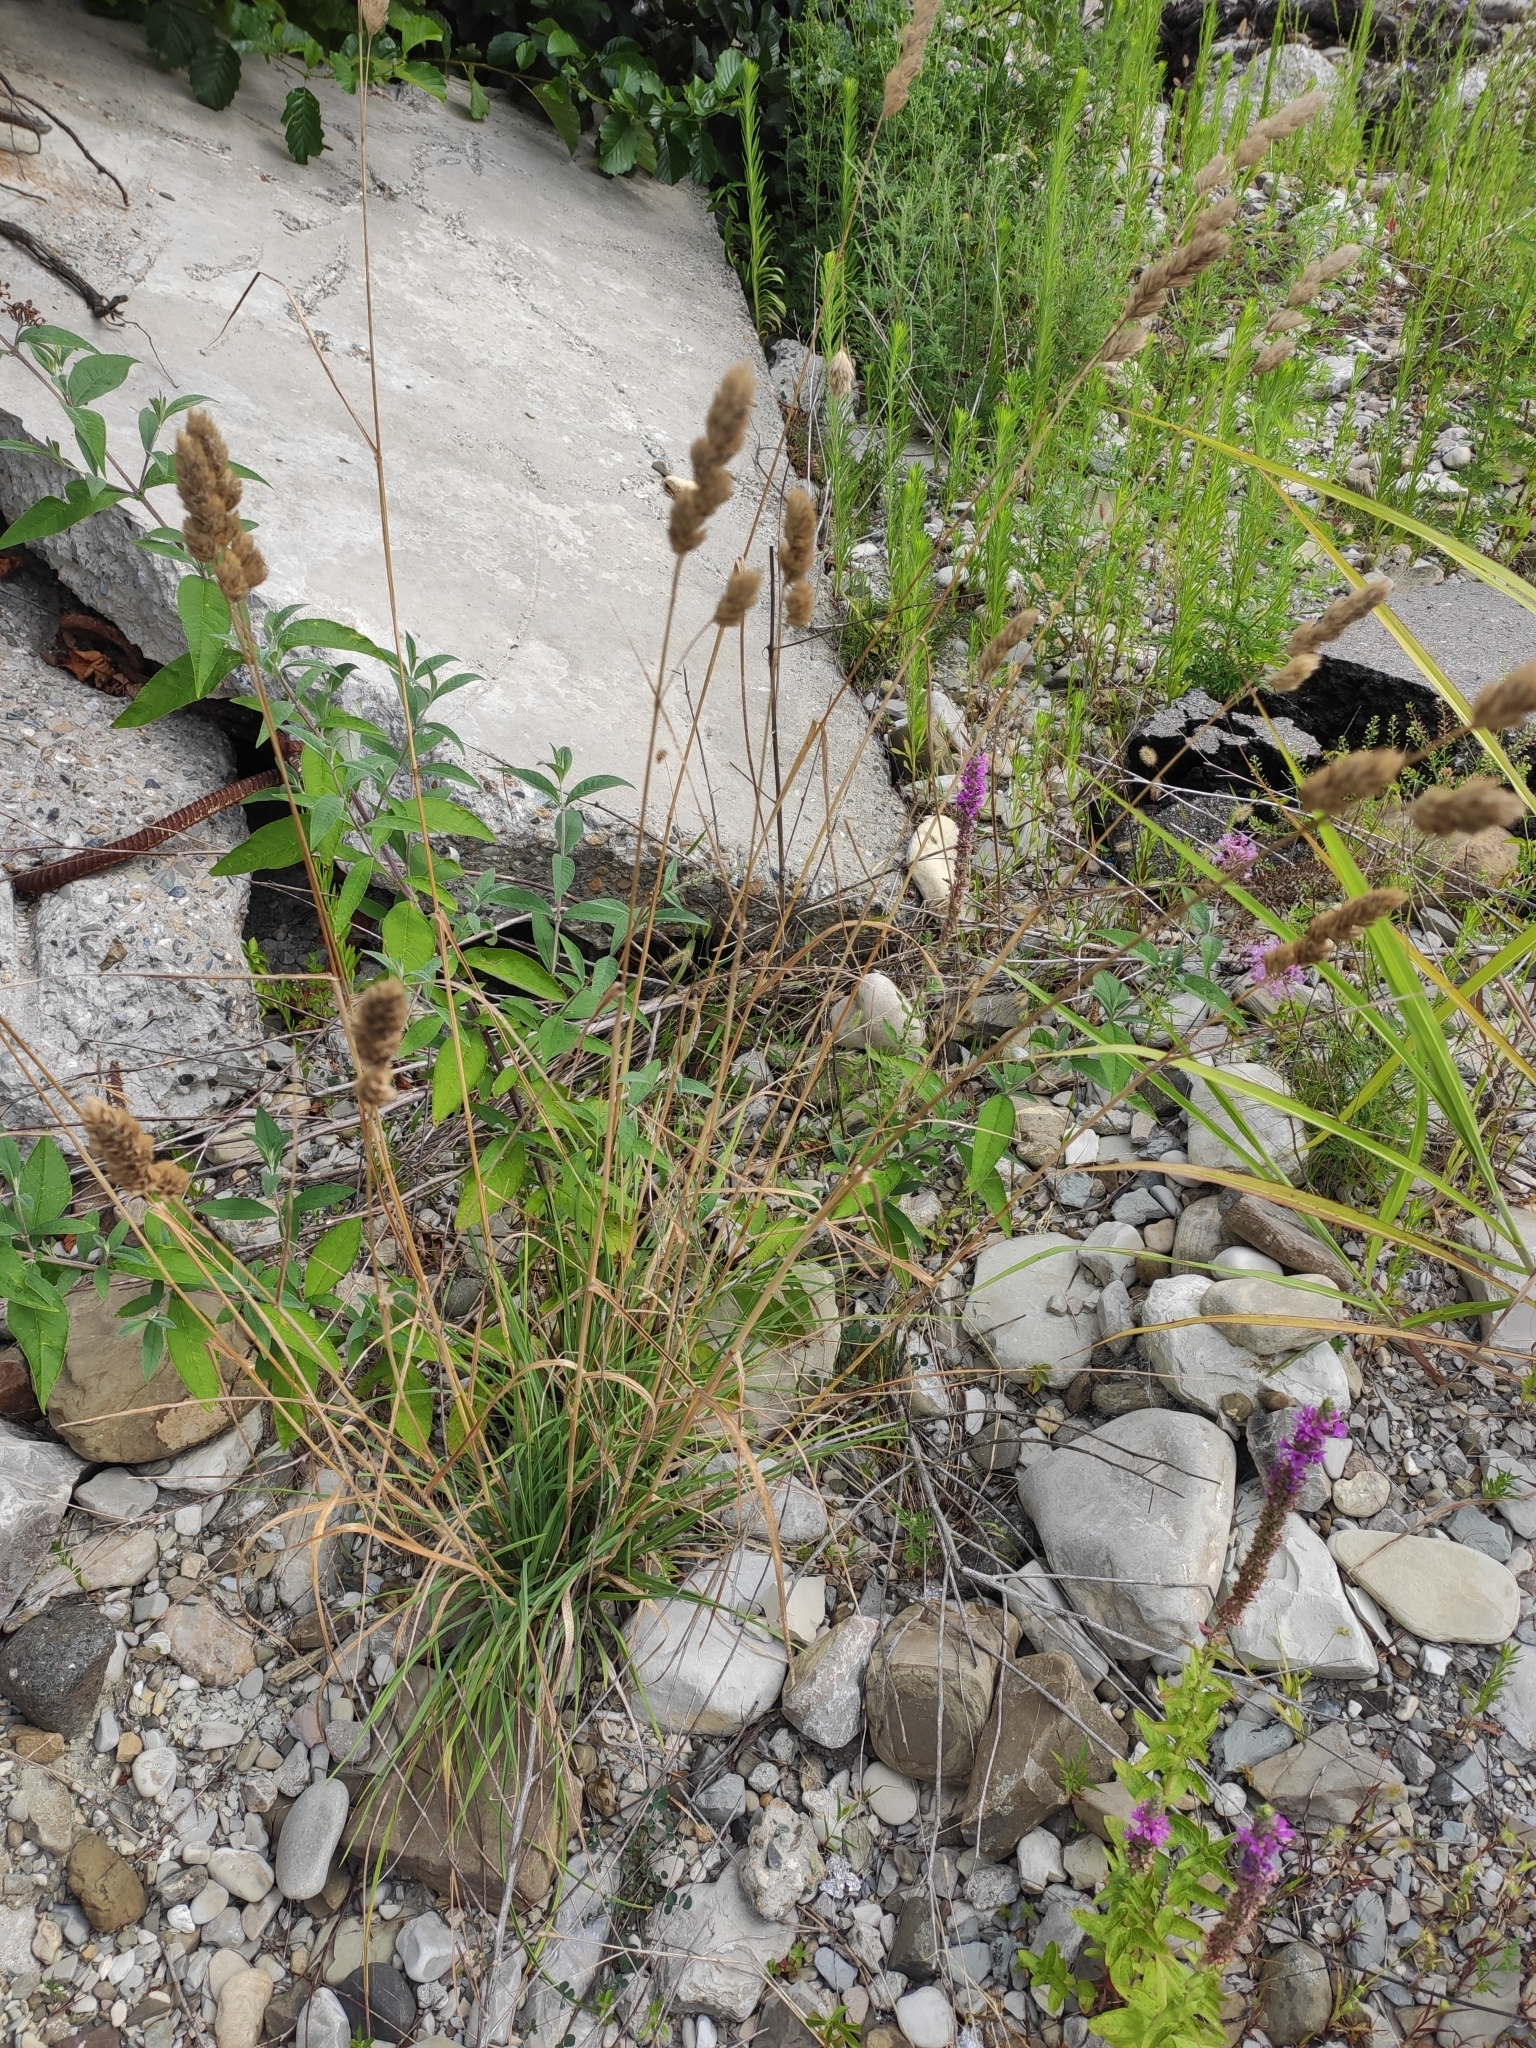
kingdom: Plantae
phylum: Tracheophyta
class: Liliopsida
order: Poales
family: Poaceae
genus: Dactylis
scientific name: Dactylis glomerata
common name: Orchardgrass
